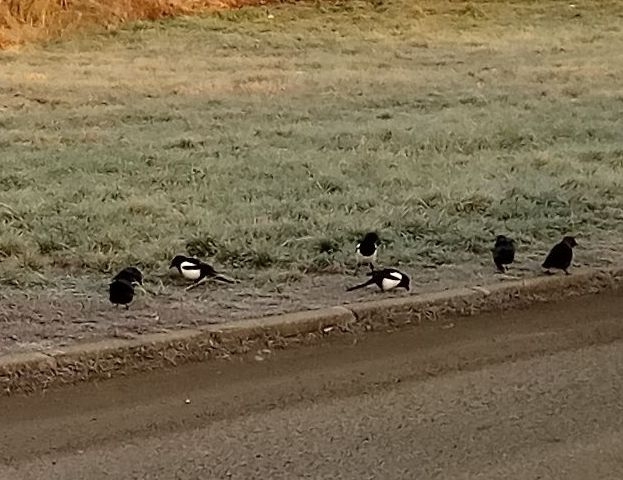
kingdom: Animalia
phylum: Chordata
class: Aves
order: Passeriformes
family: Corvidae
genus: Pica
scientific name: Pica pica
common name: Eurasian magpie
